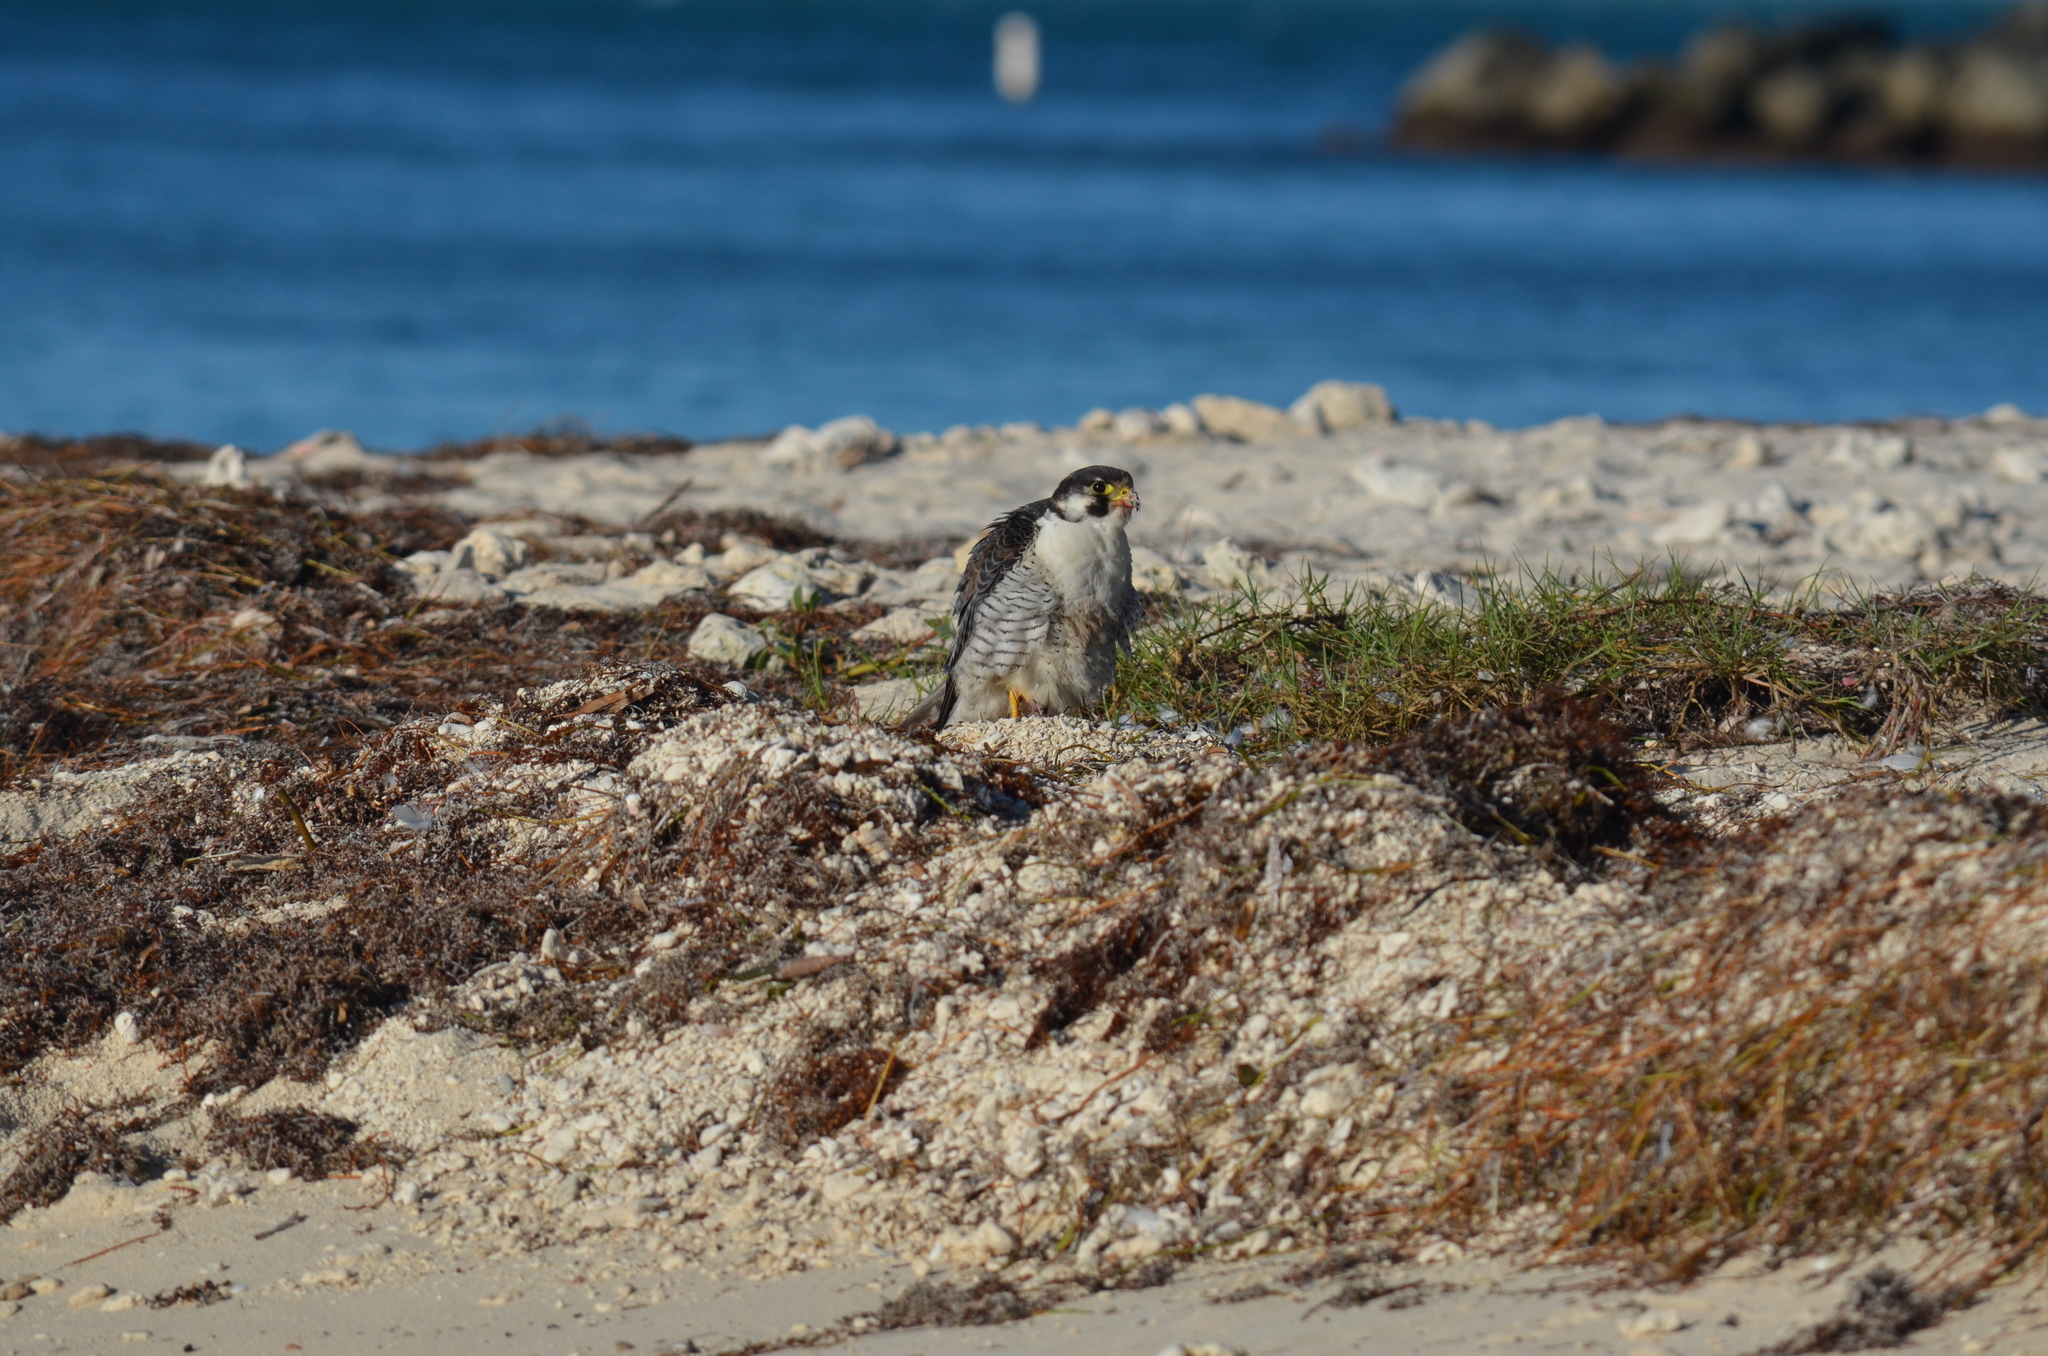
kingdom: Animalia
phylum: Chordata
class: Aves
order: Falconiformes
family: Falconidae
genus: Falco
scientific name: Falco peregrinus
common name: Peregrine falcon
